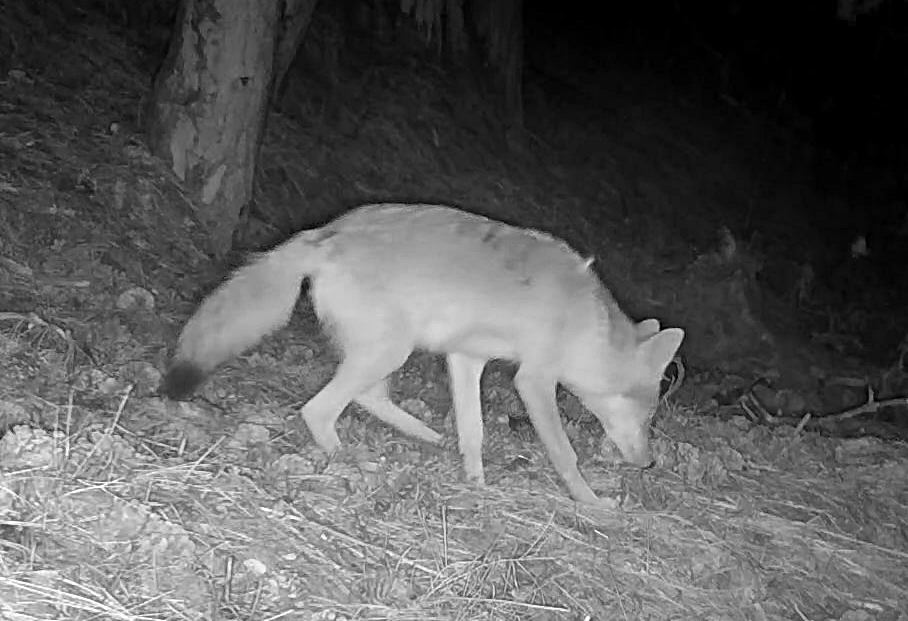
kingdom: Animalia
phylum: Chordata
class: Mammalia
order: Carnivora
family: Canidae
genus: Canis
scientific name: Canis latrans
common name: Coyote
